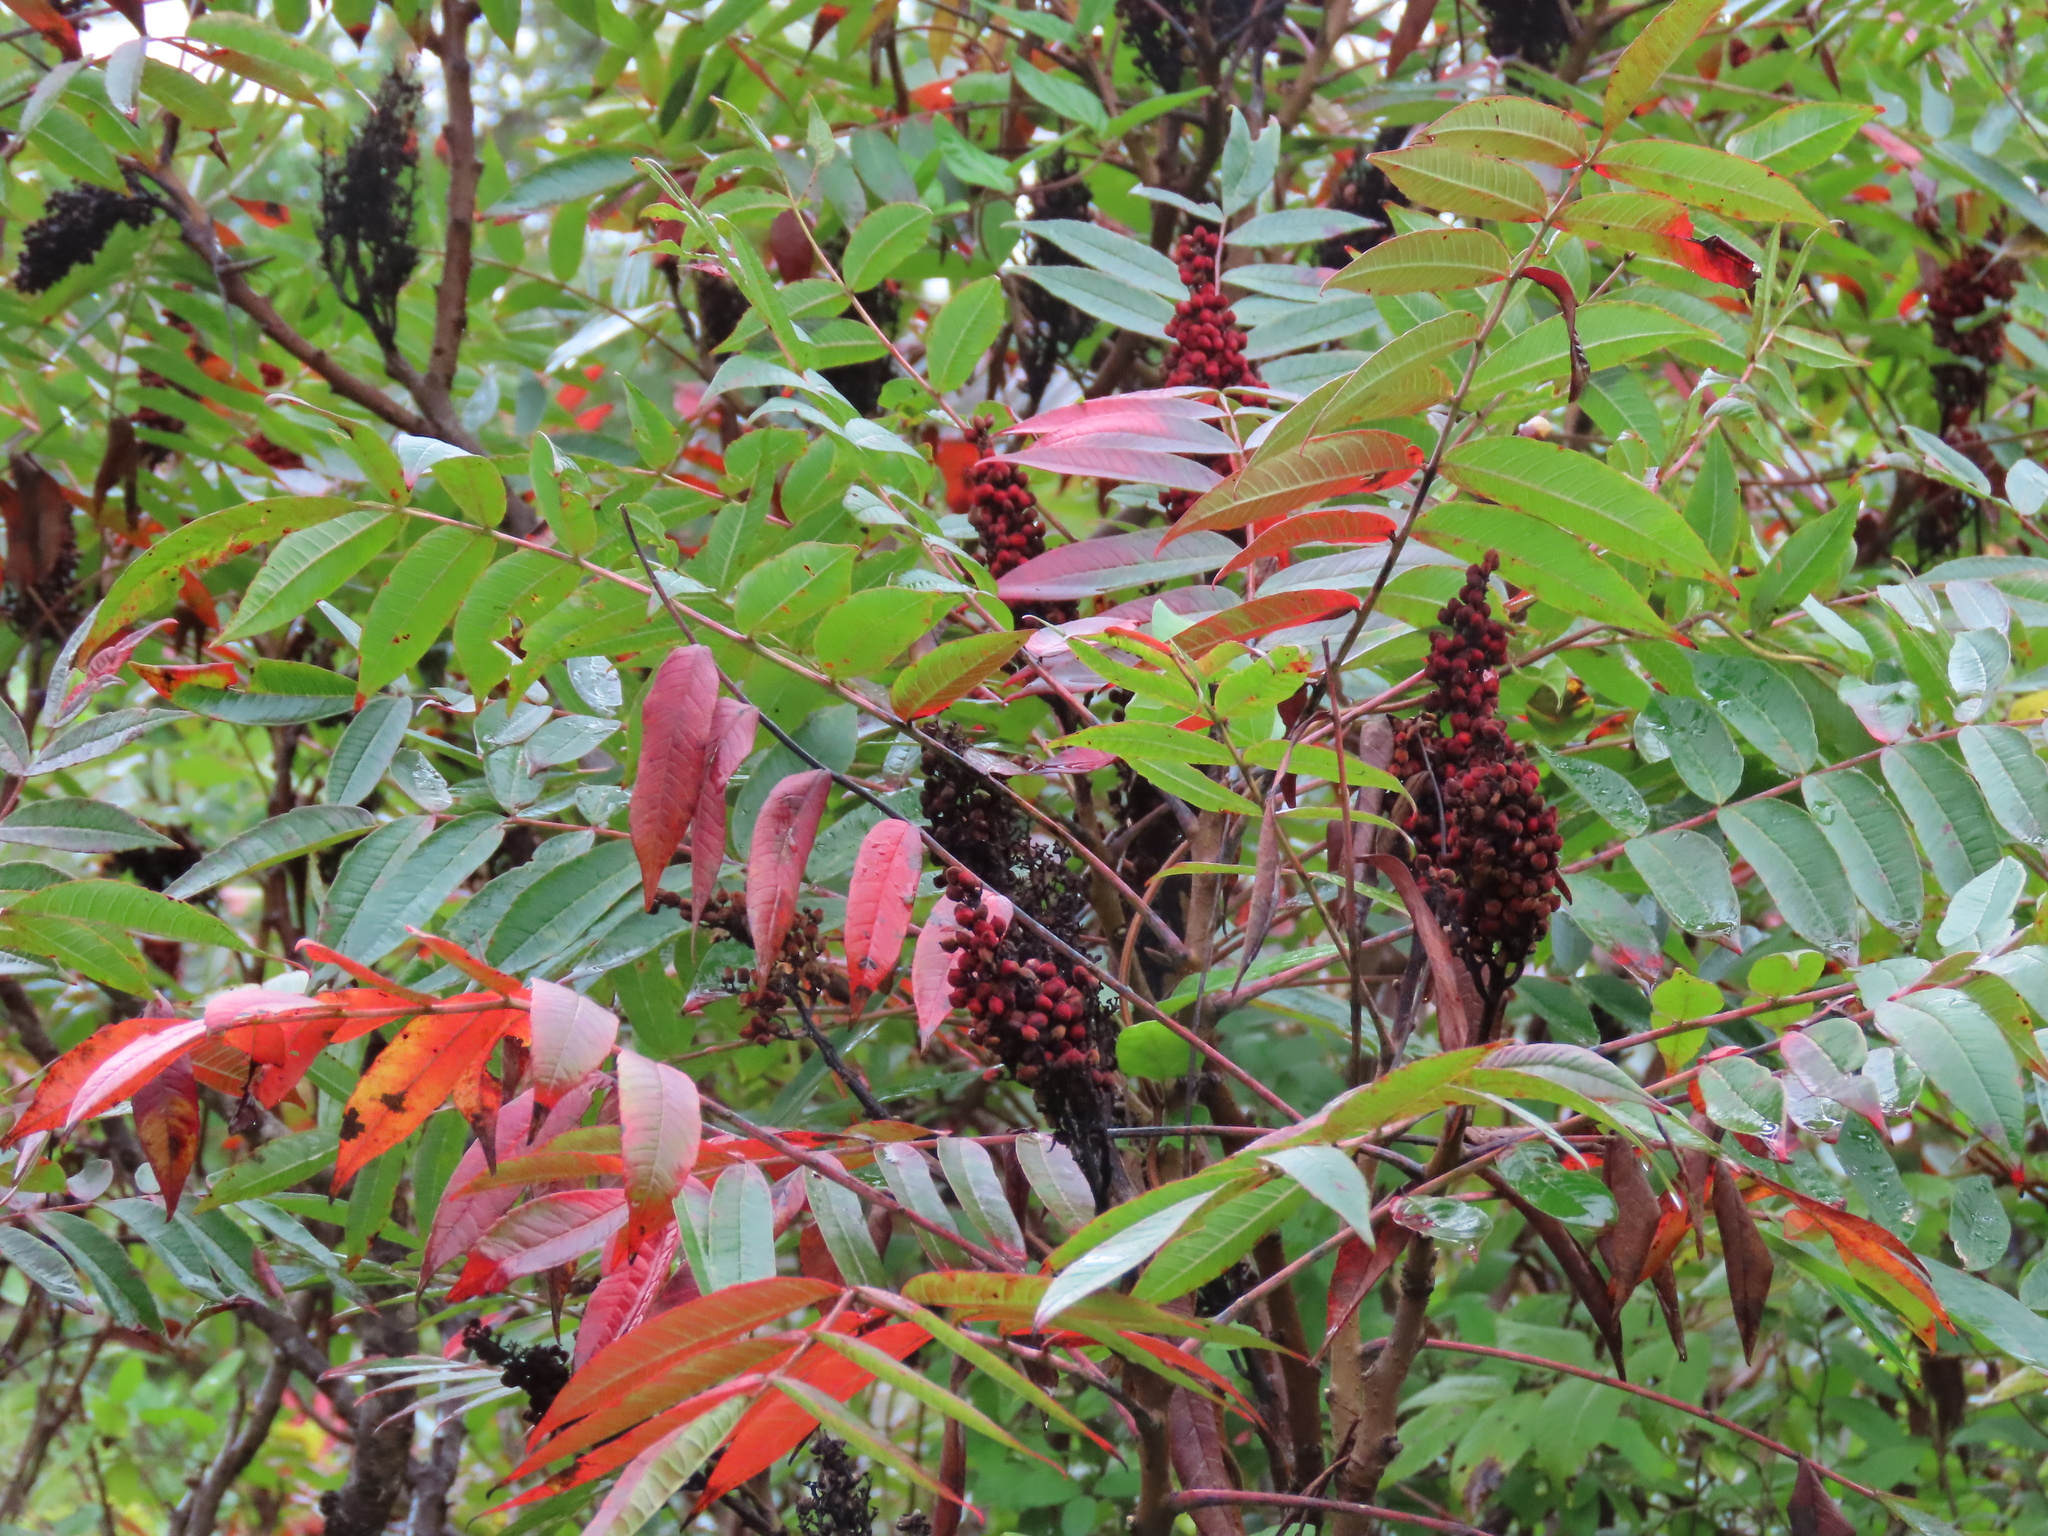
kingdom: Plantae
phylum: Tracheophyta
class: Magnoliopsida
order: Sapindales
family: Anacardiaceae
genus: Rhus
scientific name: Rhus glabra
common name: Scarlet sumac
